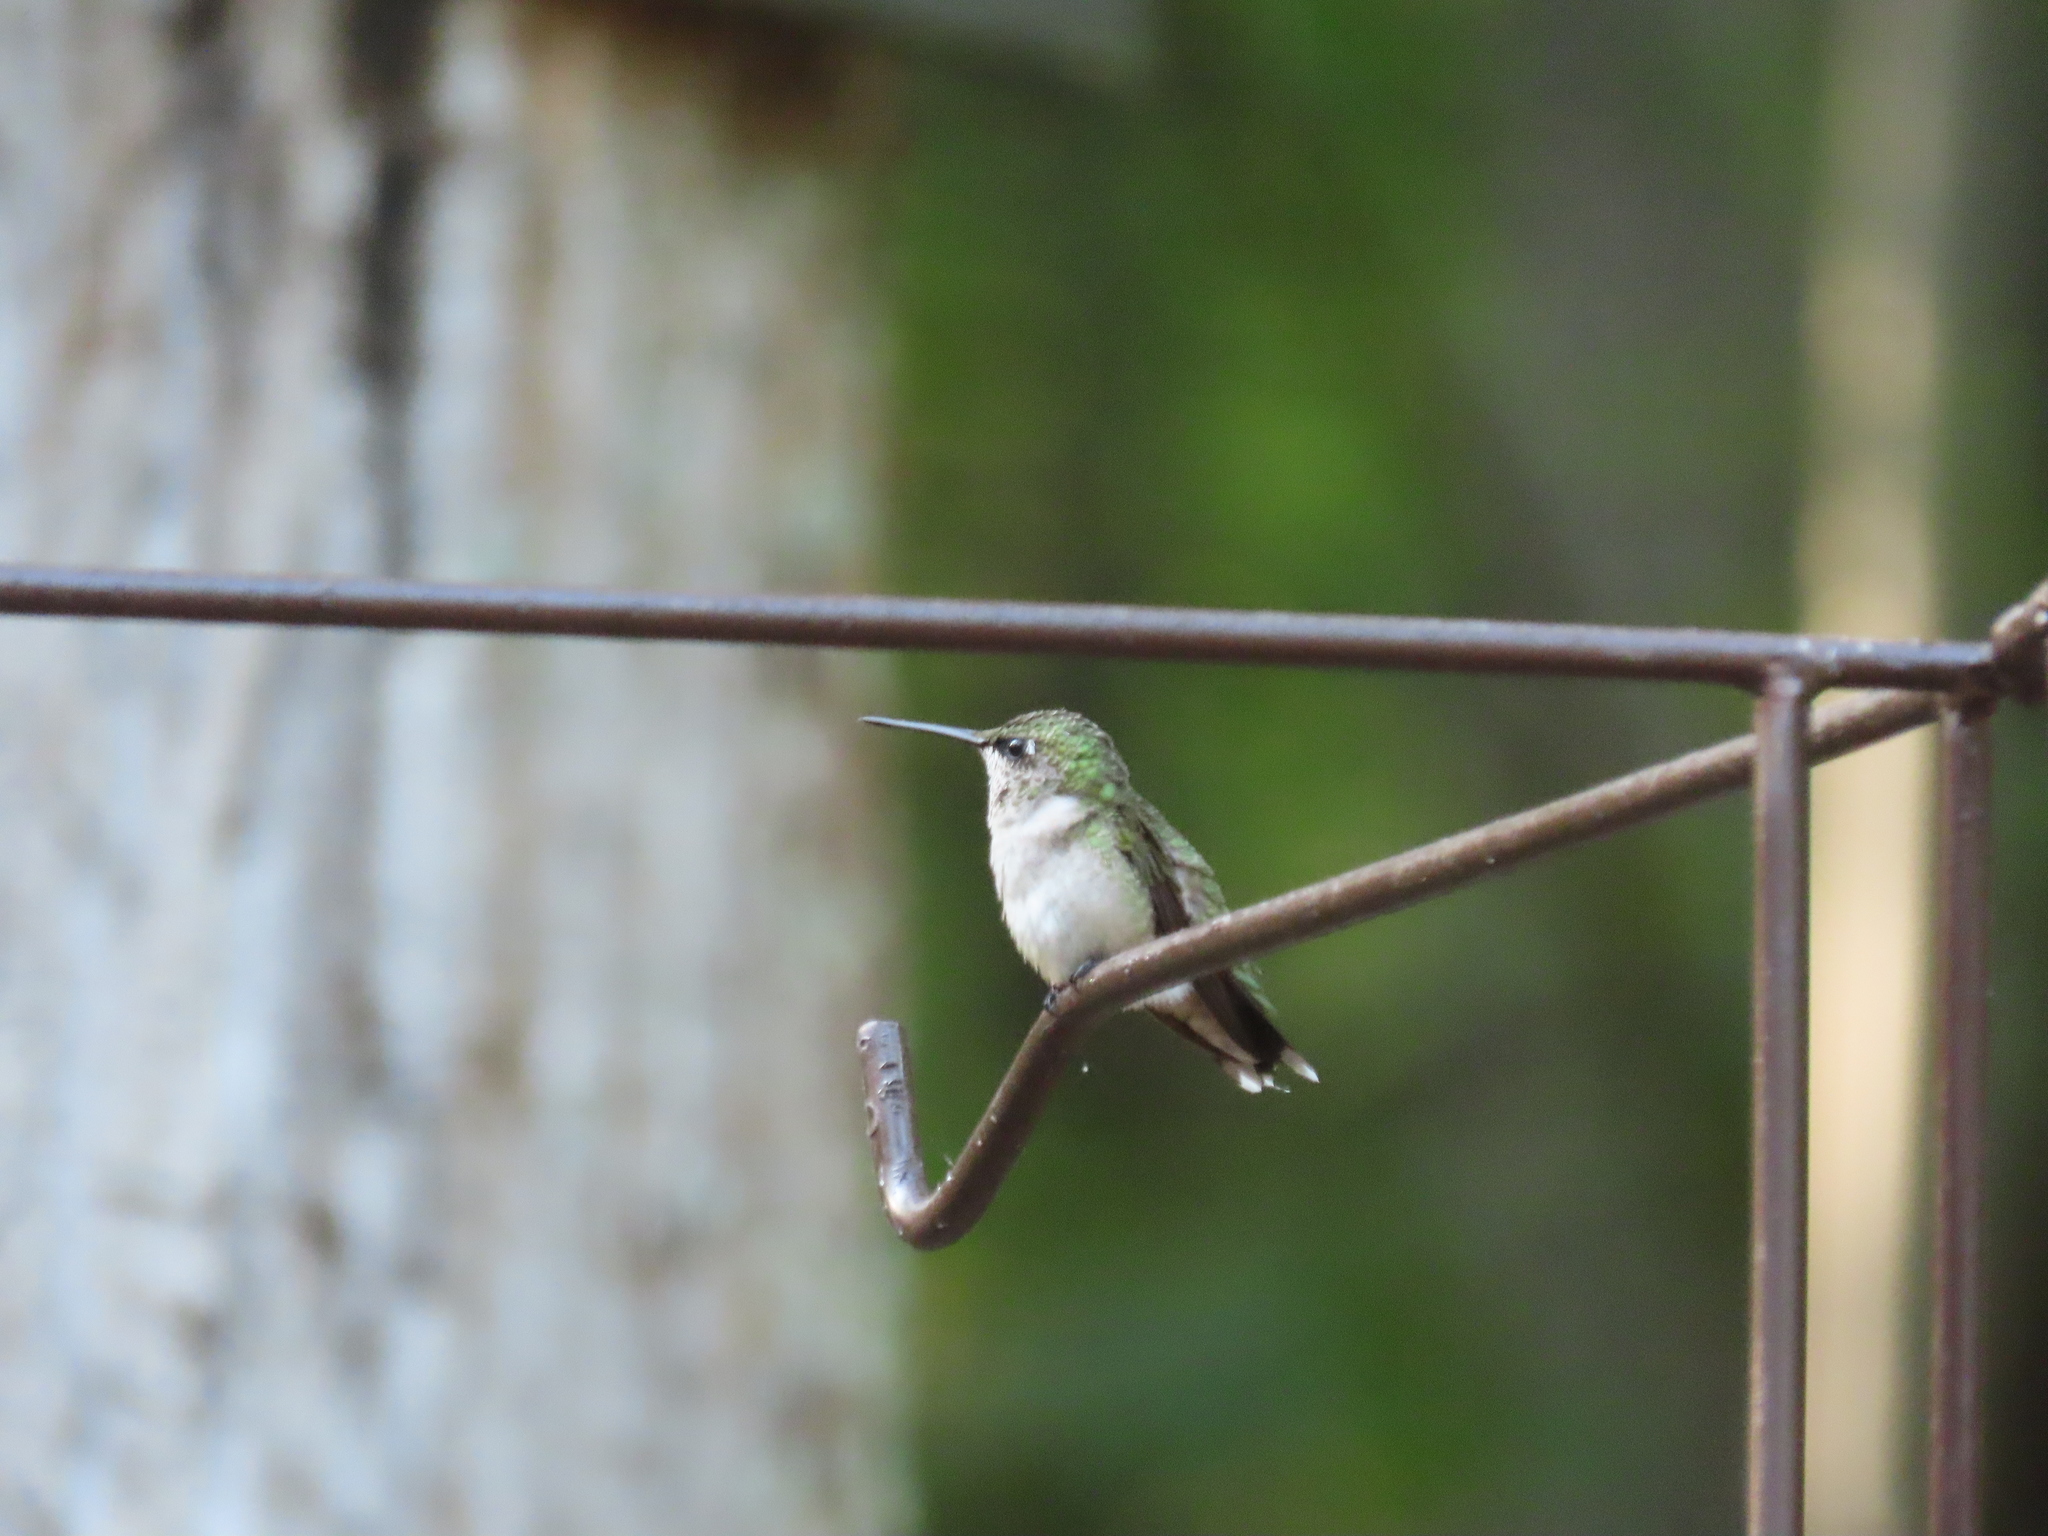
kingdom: Animalia
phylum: Chordata
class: Aves
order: Apodiformes
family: Trochilidae
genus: Archilochus
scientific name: Archilochus colubris
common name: Ruby-throated hummingbird
